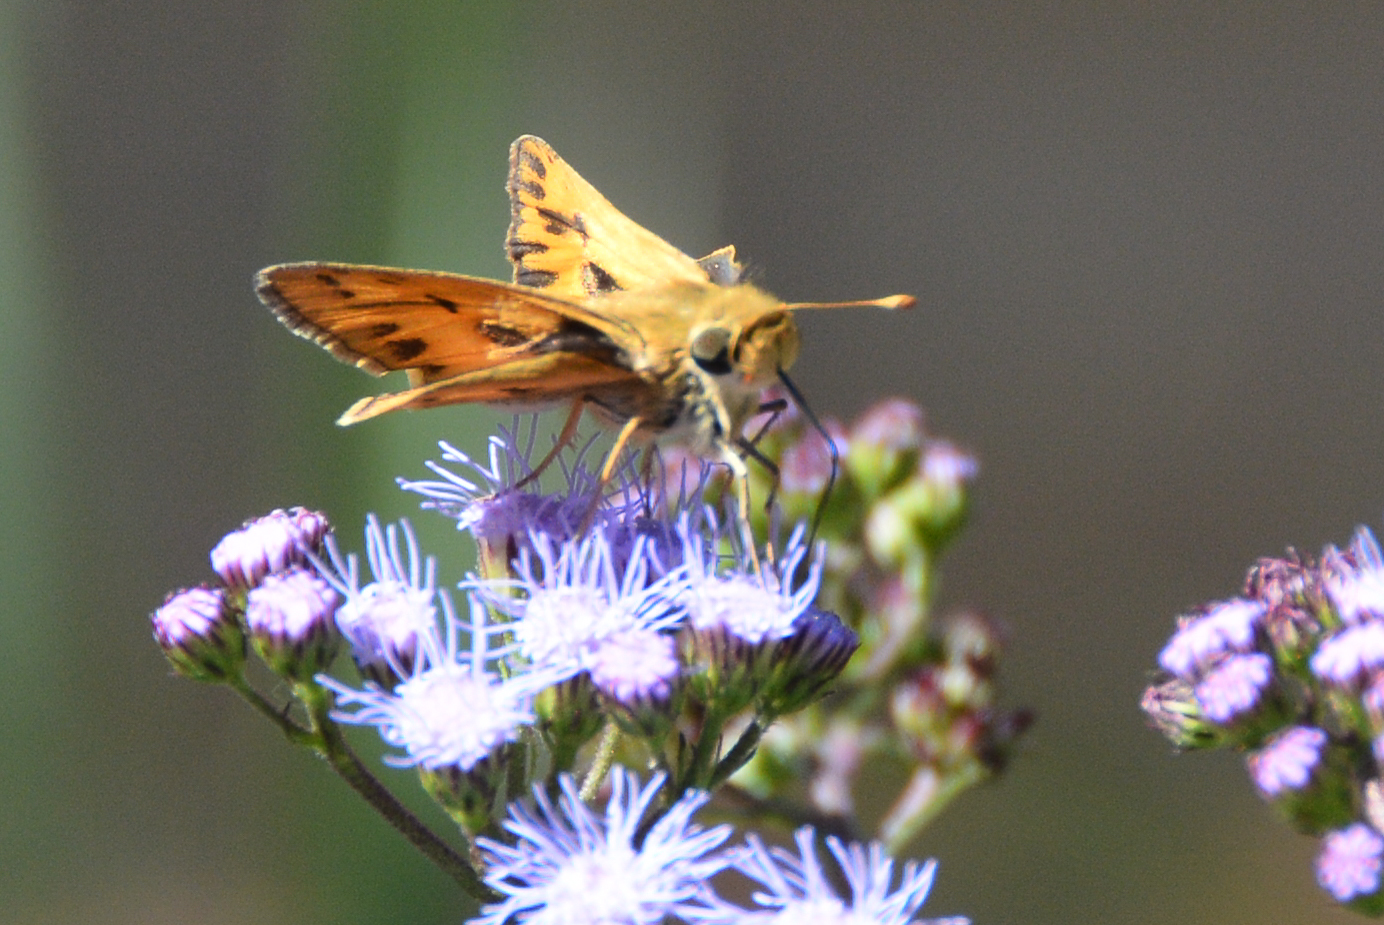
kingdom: Animalia
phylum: Arthropoda
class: Insecta
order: Lepidoptera
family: Hesperiidae
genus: Hylephila
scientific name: Hylephila phyleus
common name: Fiery skipper
